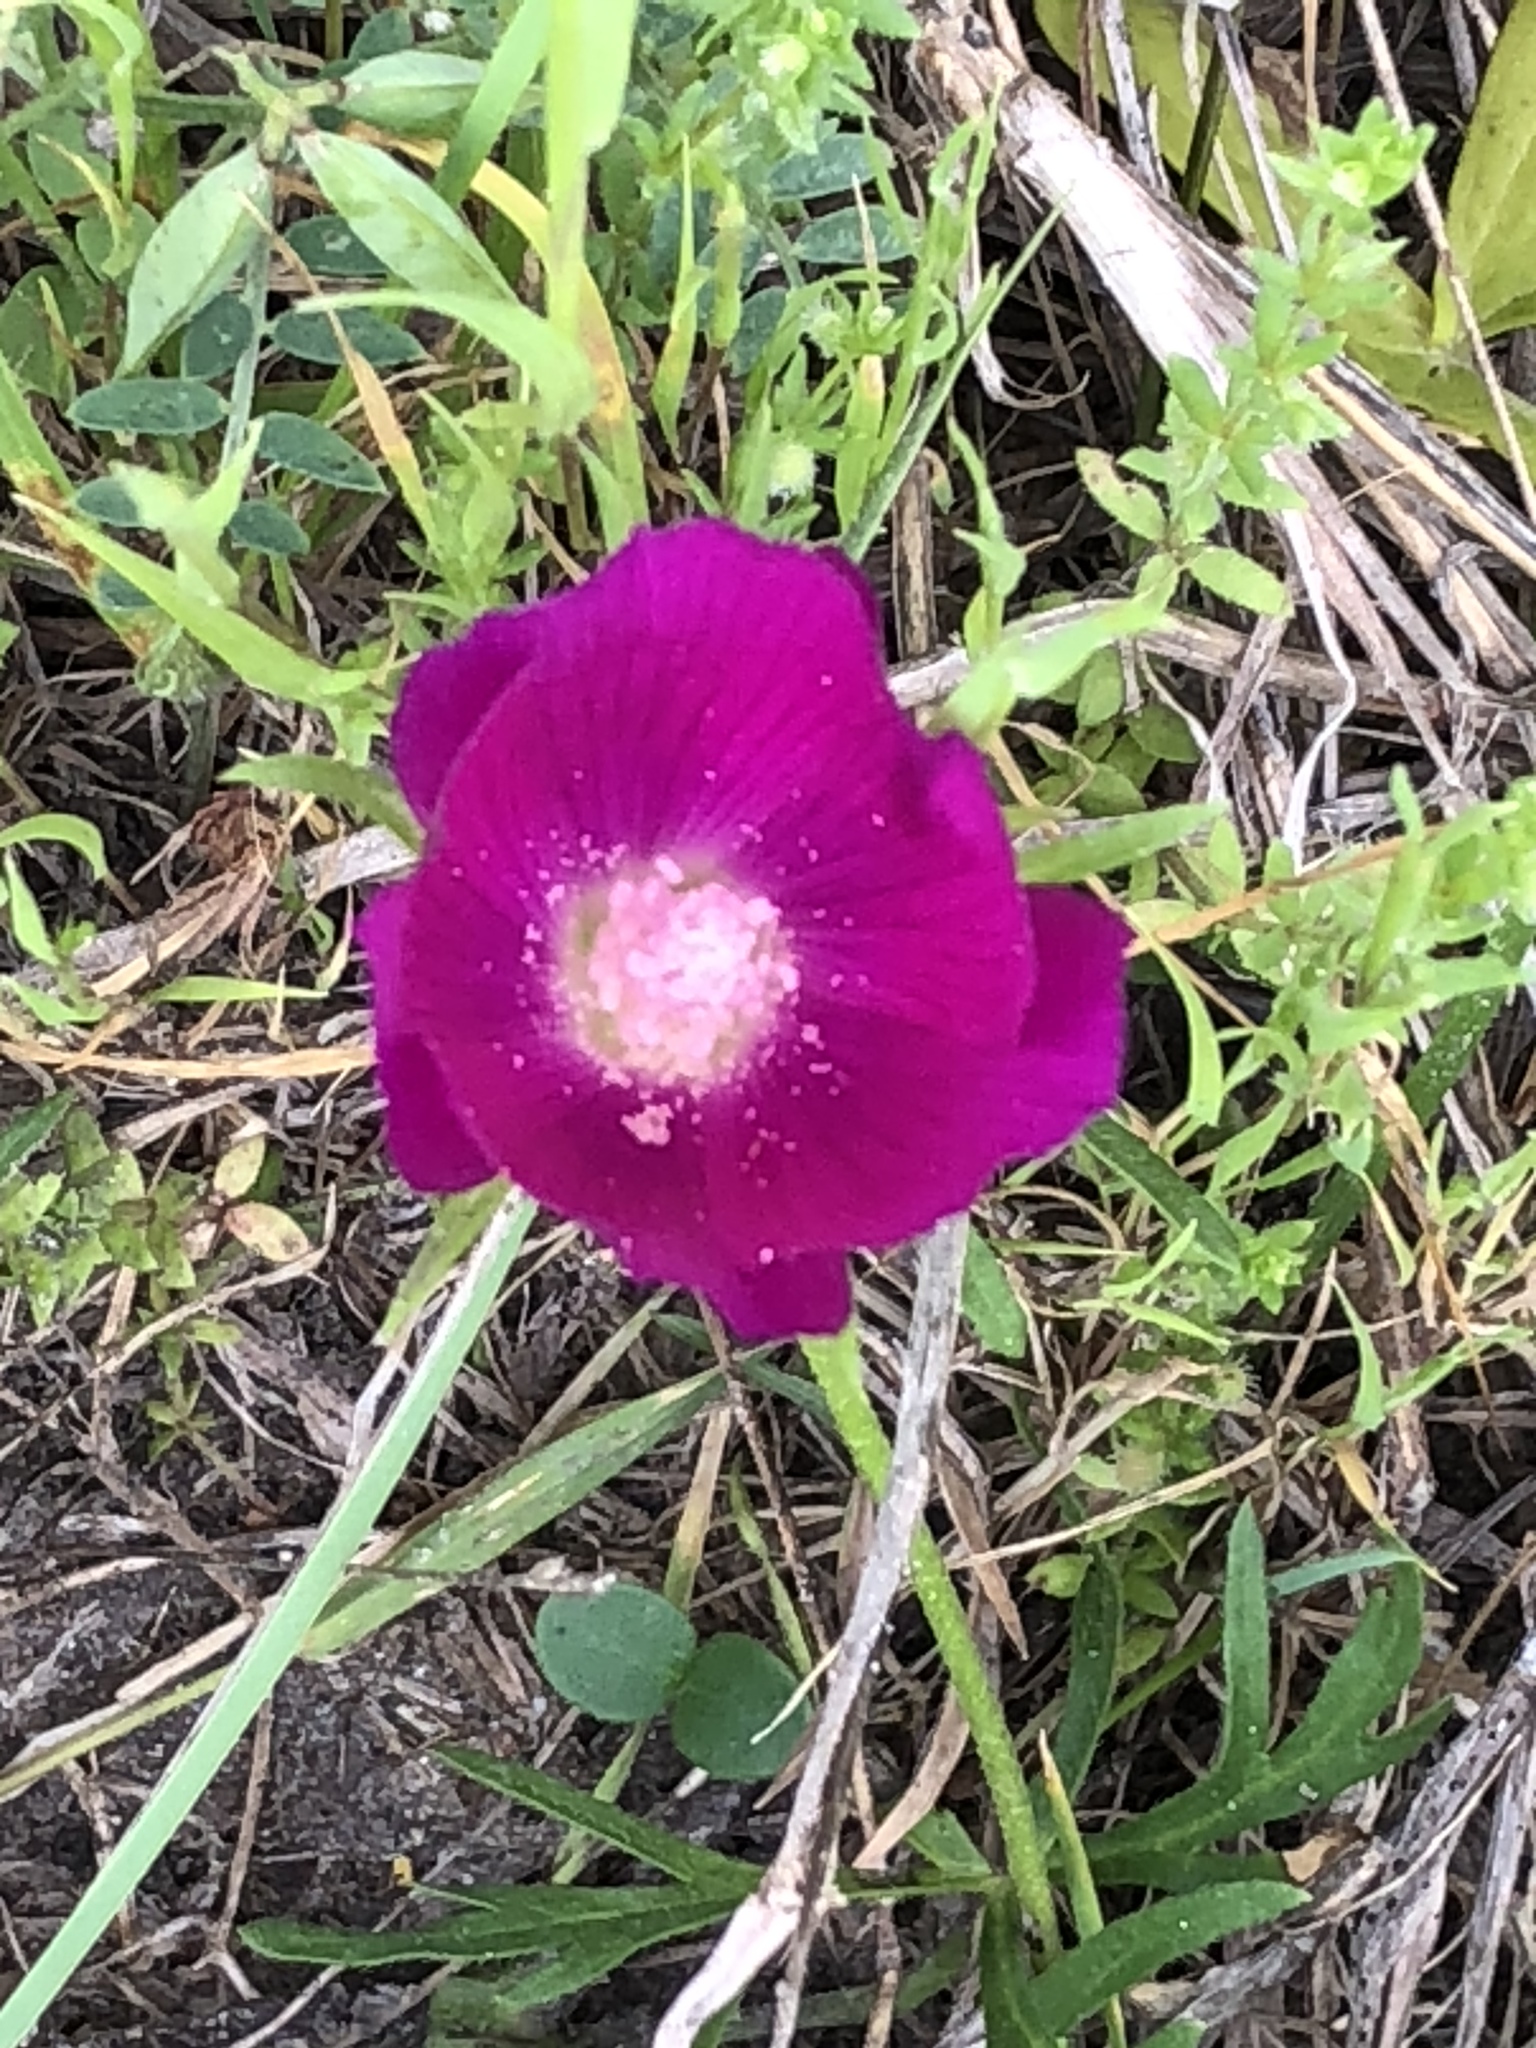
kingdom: Plantae
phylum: Tracheophyta
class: Magnoliopsida
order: Malvales
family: Malvaceae
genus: Callirhoe
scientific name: Callirhoe involucrata
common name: Purple poppy-mallow
